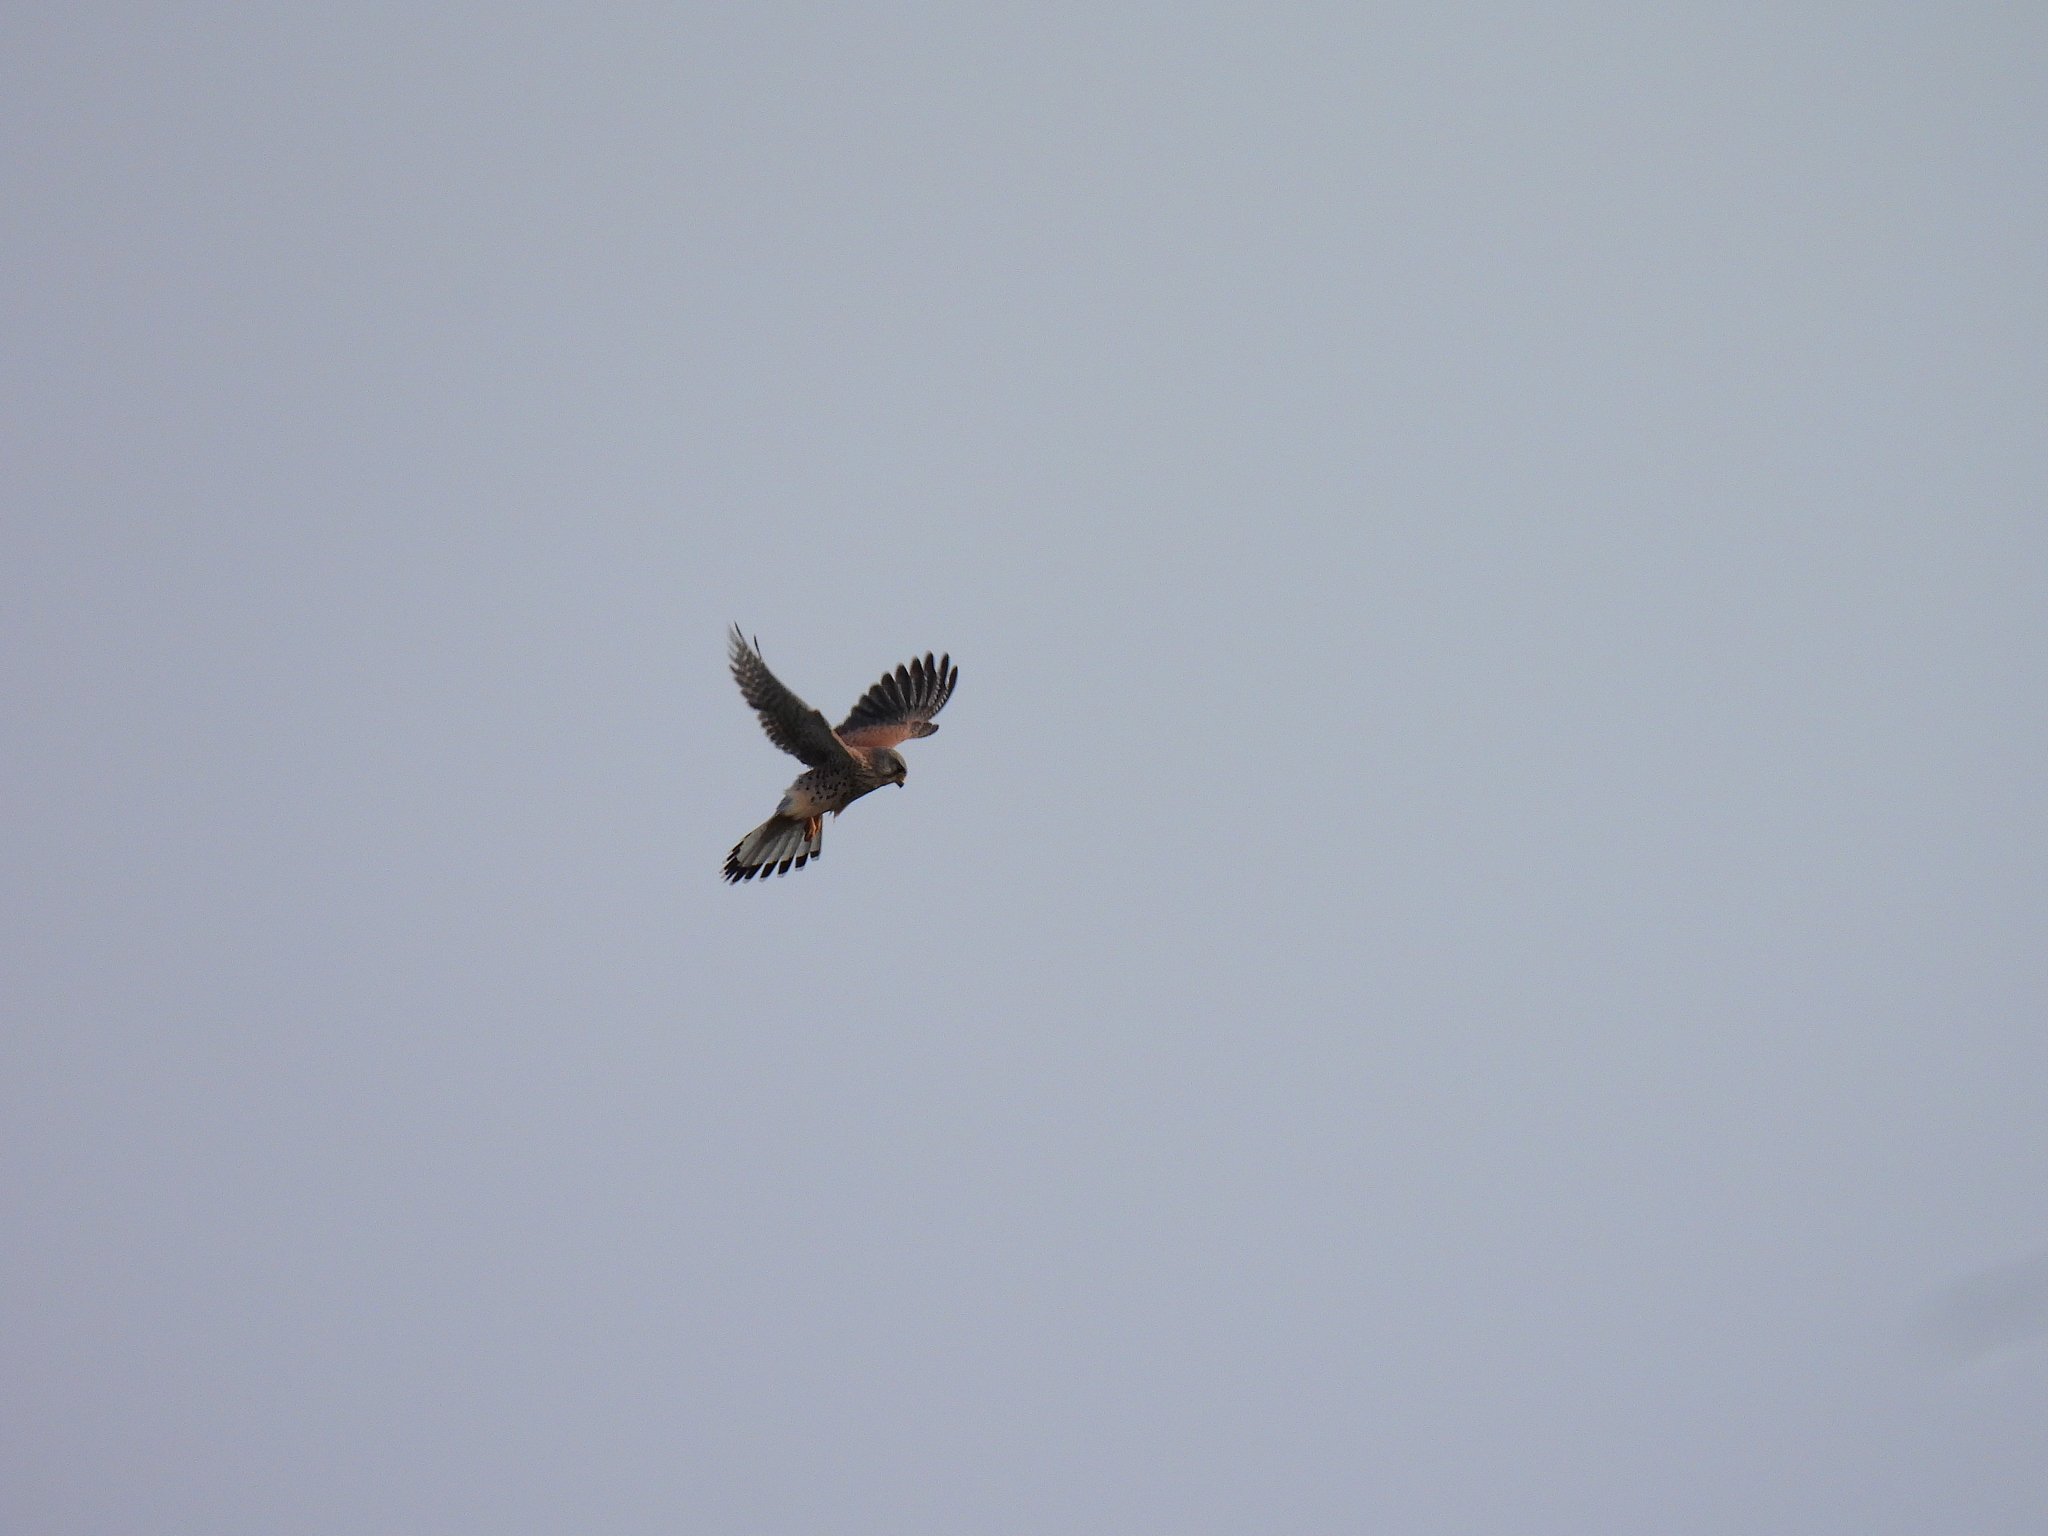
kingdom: Animalia
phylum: Chordata
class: Aves
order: Falconiformes
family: Falconidae
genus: Falco
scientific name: Falco tinnunculus
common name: Common kestrel
